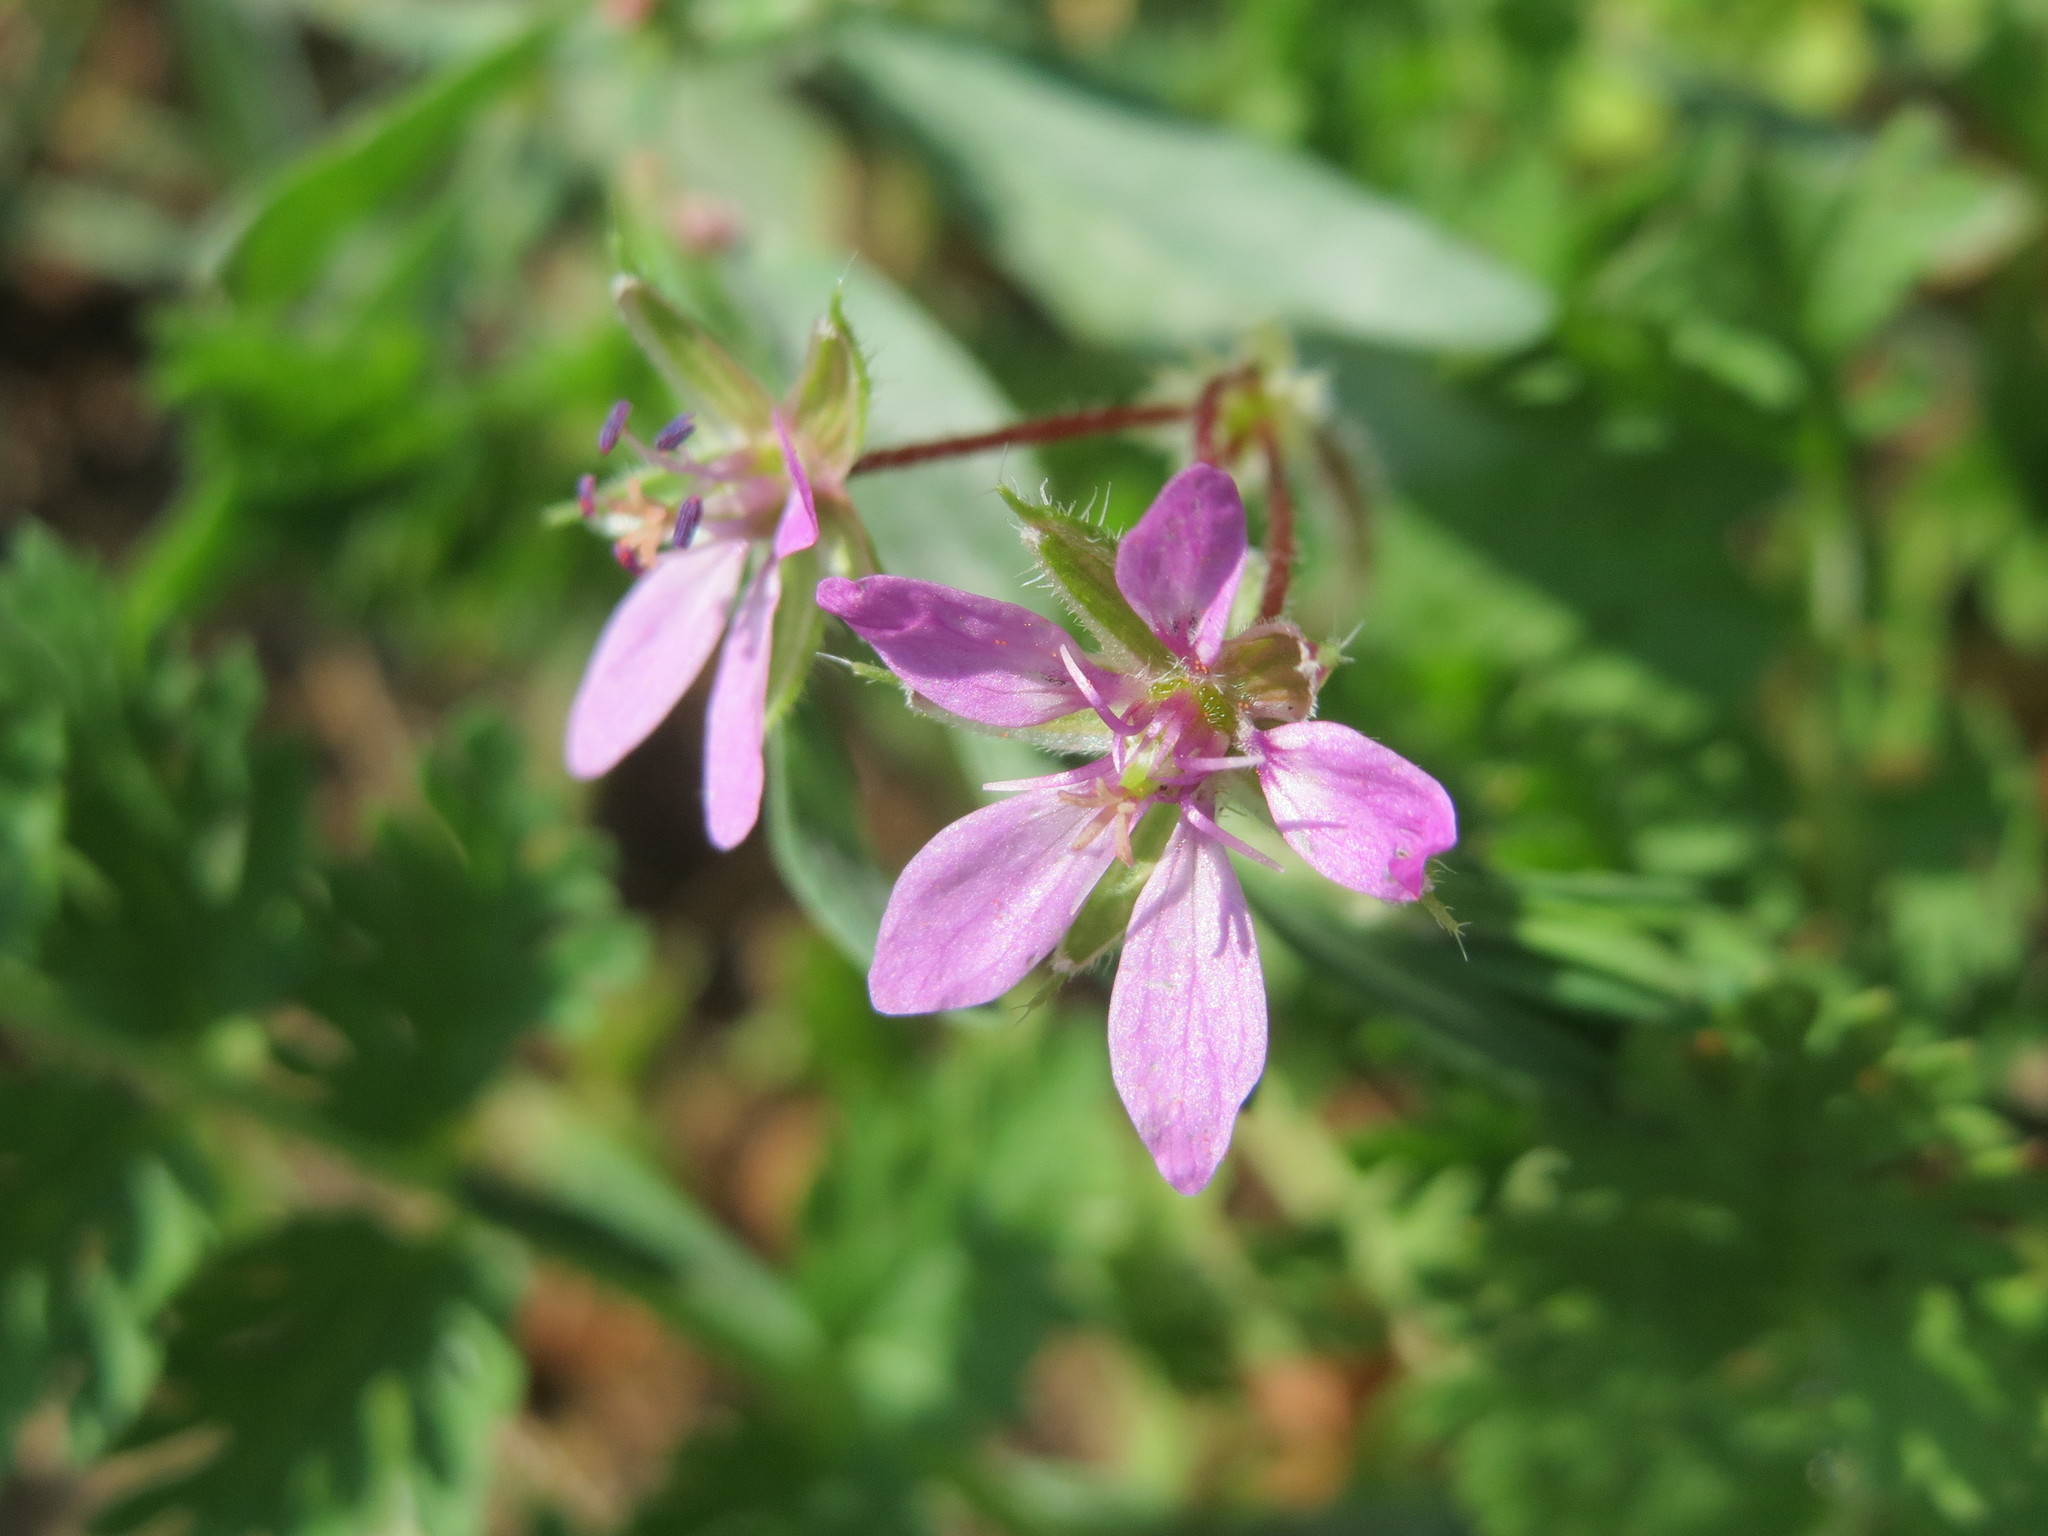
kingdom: Plantae
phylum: Tracheophyta
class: Magnoliopsida
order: Geraniales
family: Geraniaceae
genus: Erodium
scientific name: Erodium cicutarium
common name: Common stork's-bill
